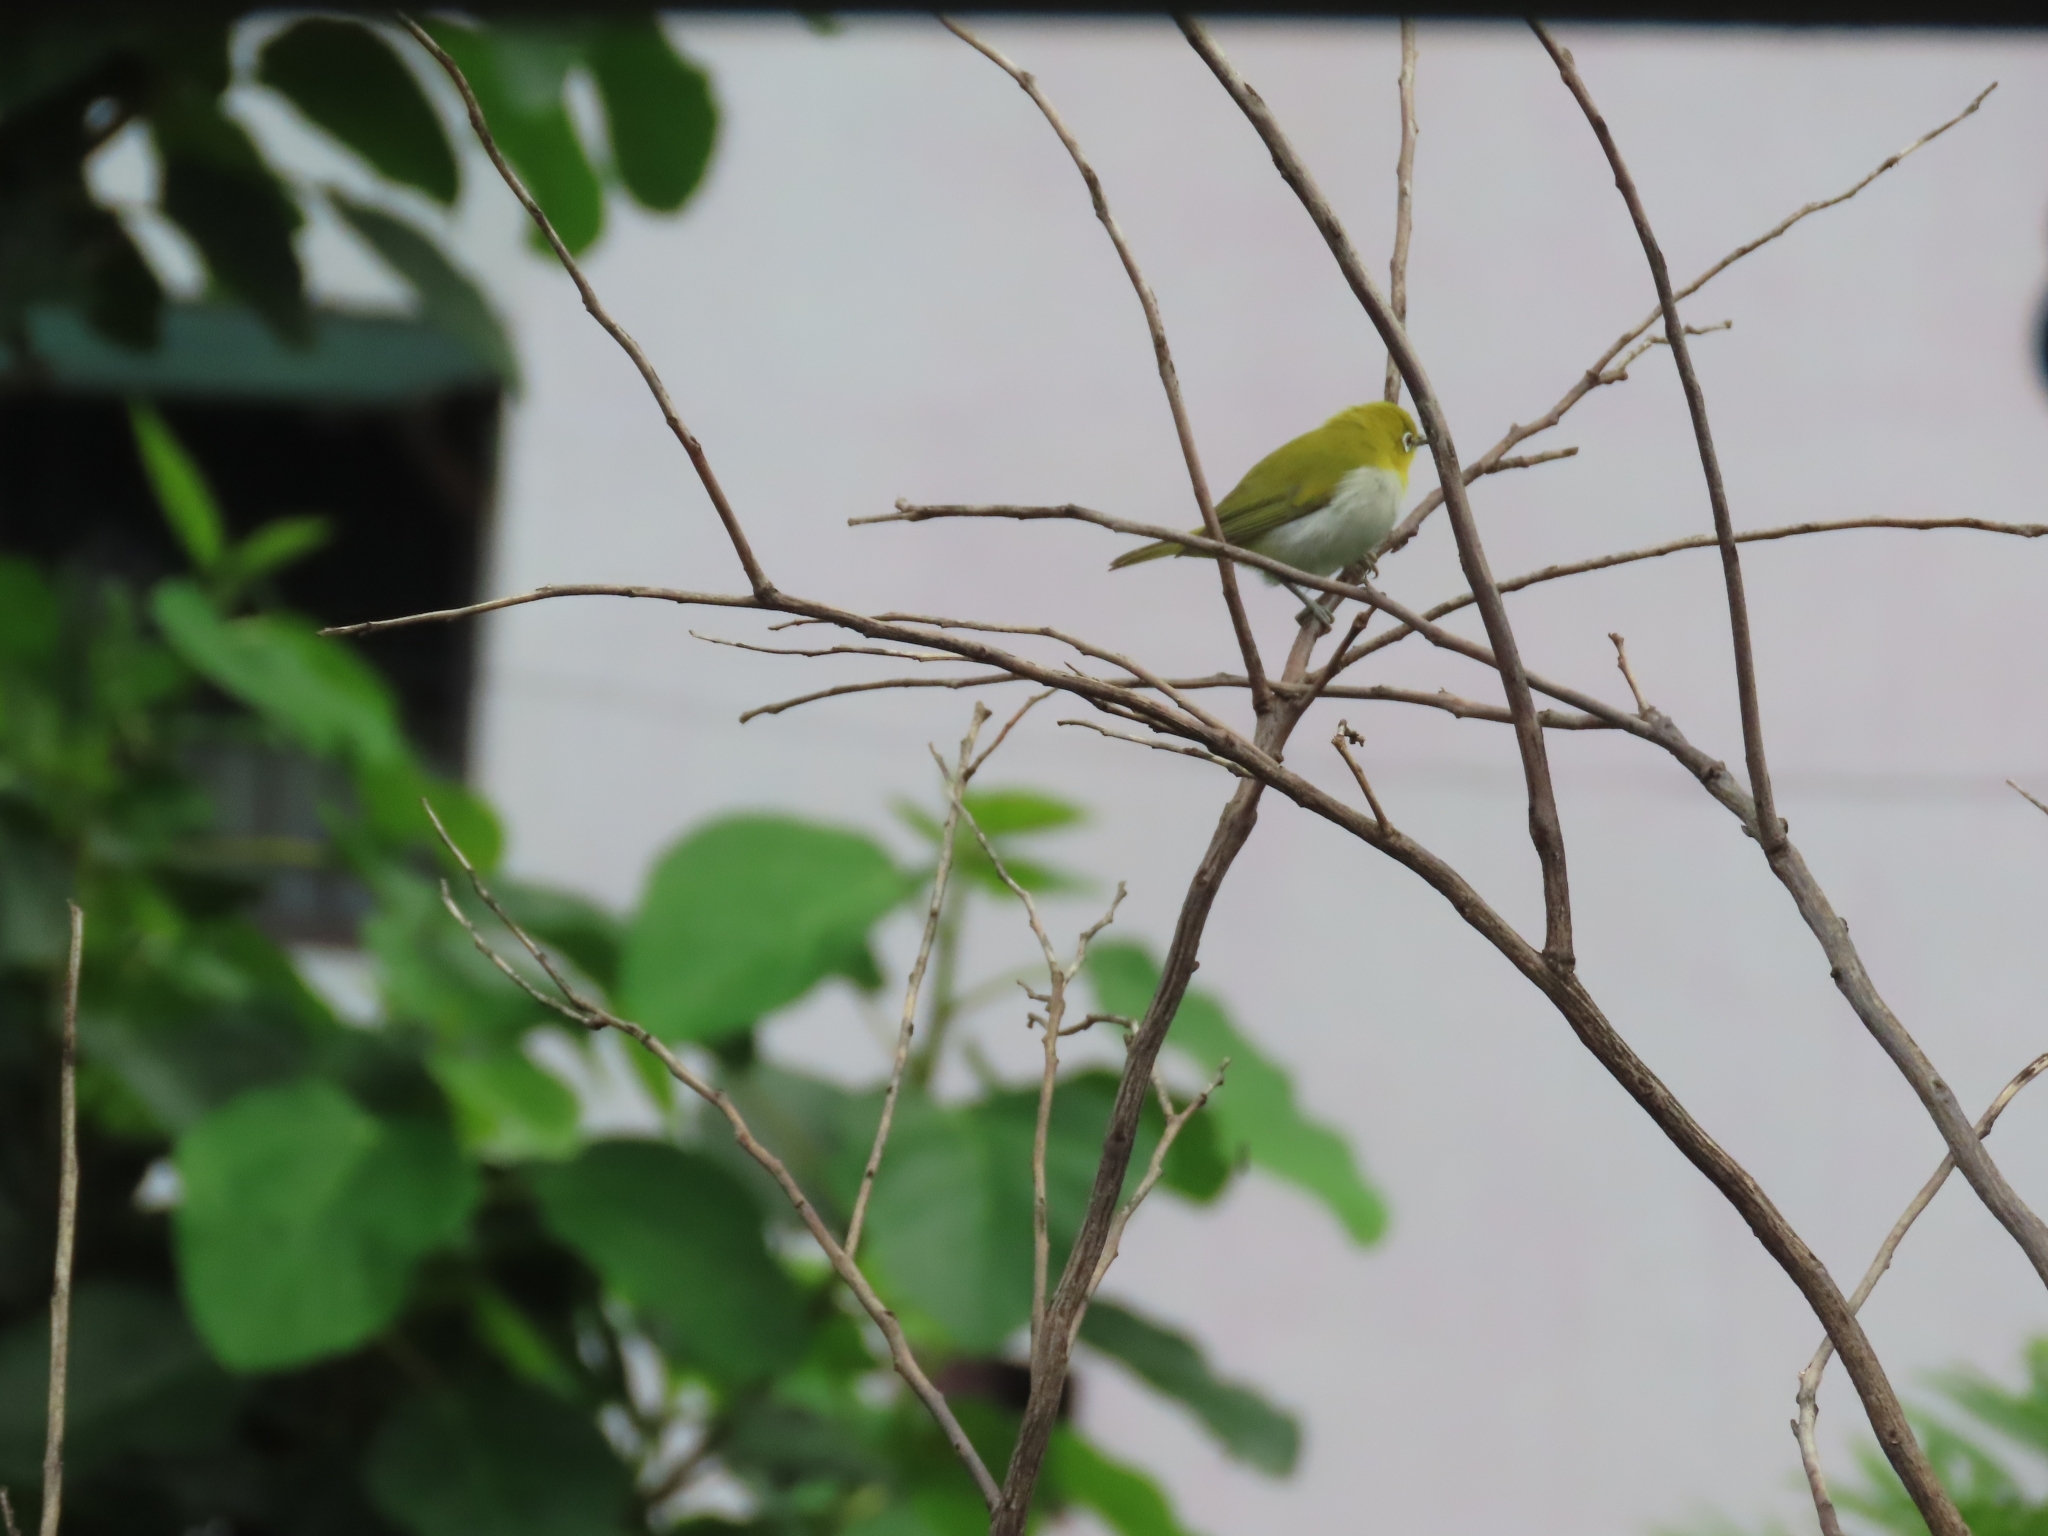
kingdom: Animalia
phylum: Chordata
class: Aves
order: Passeriformes
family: Zosteropidae
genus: Zosterops
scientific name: Zosterops palpebrosus
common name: Oriental white-eye
